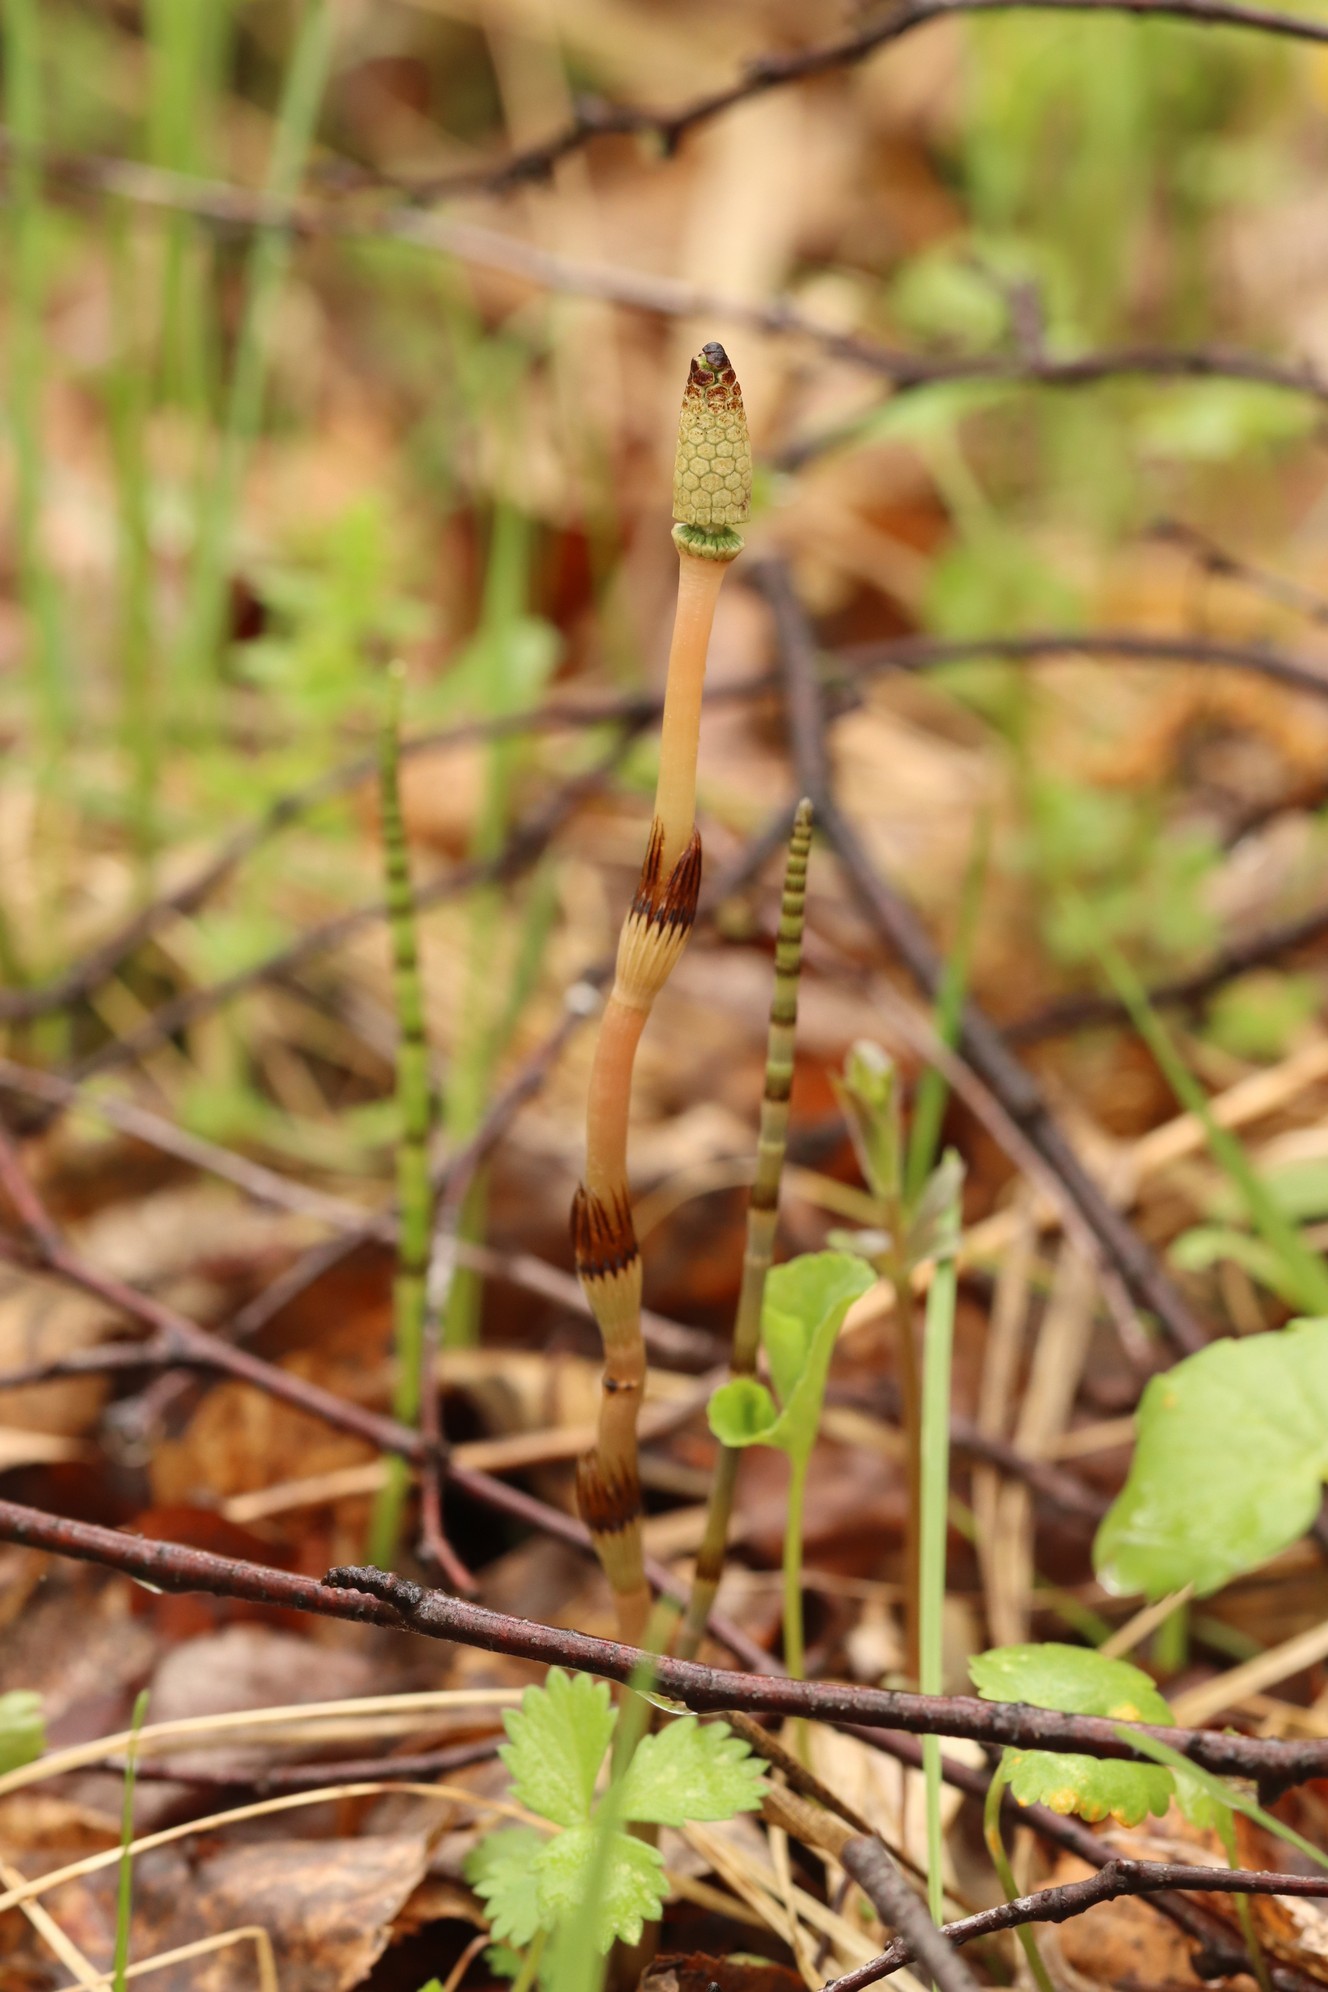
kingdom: Plantae
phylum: Tracheophyta
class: Polypodiopsida
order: Equisetales
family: Equisetaceae
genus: Equisetum
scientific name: Equisetum pratense
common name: Meadow horsetail
